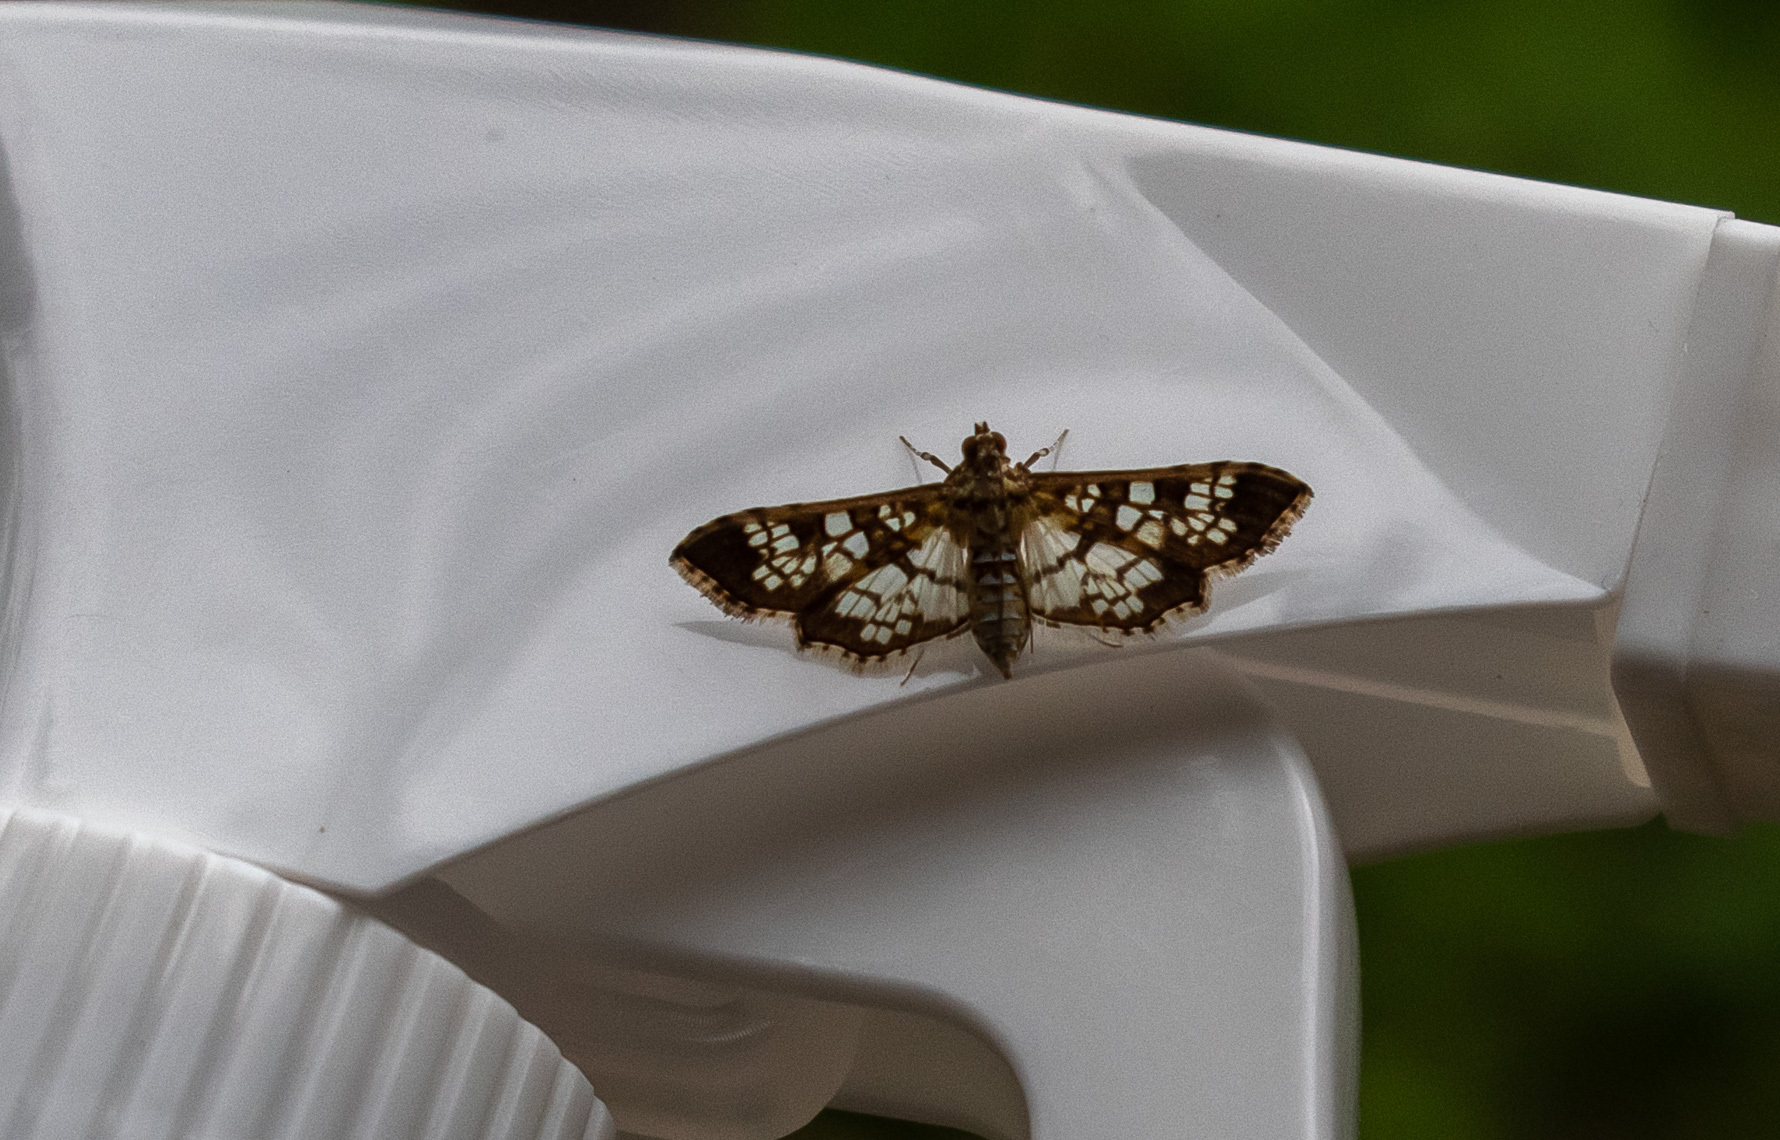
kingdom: Animalia
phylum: Arthropoda
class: Insecta
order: Lepidoptera
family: Crambidae
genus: Samea
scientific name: Samea ecclesialis
